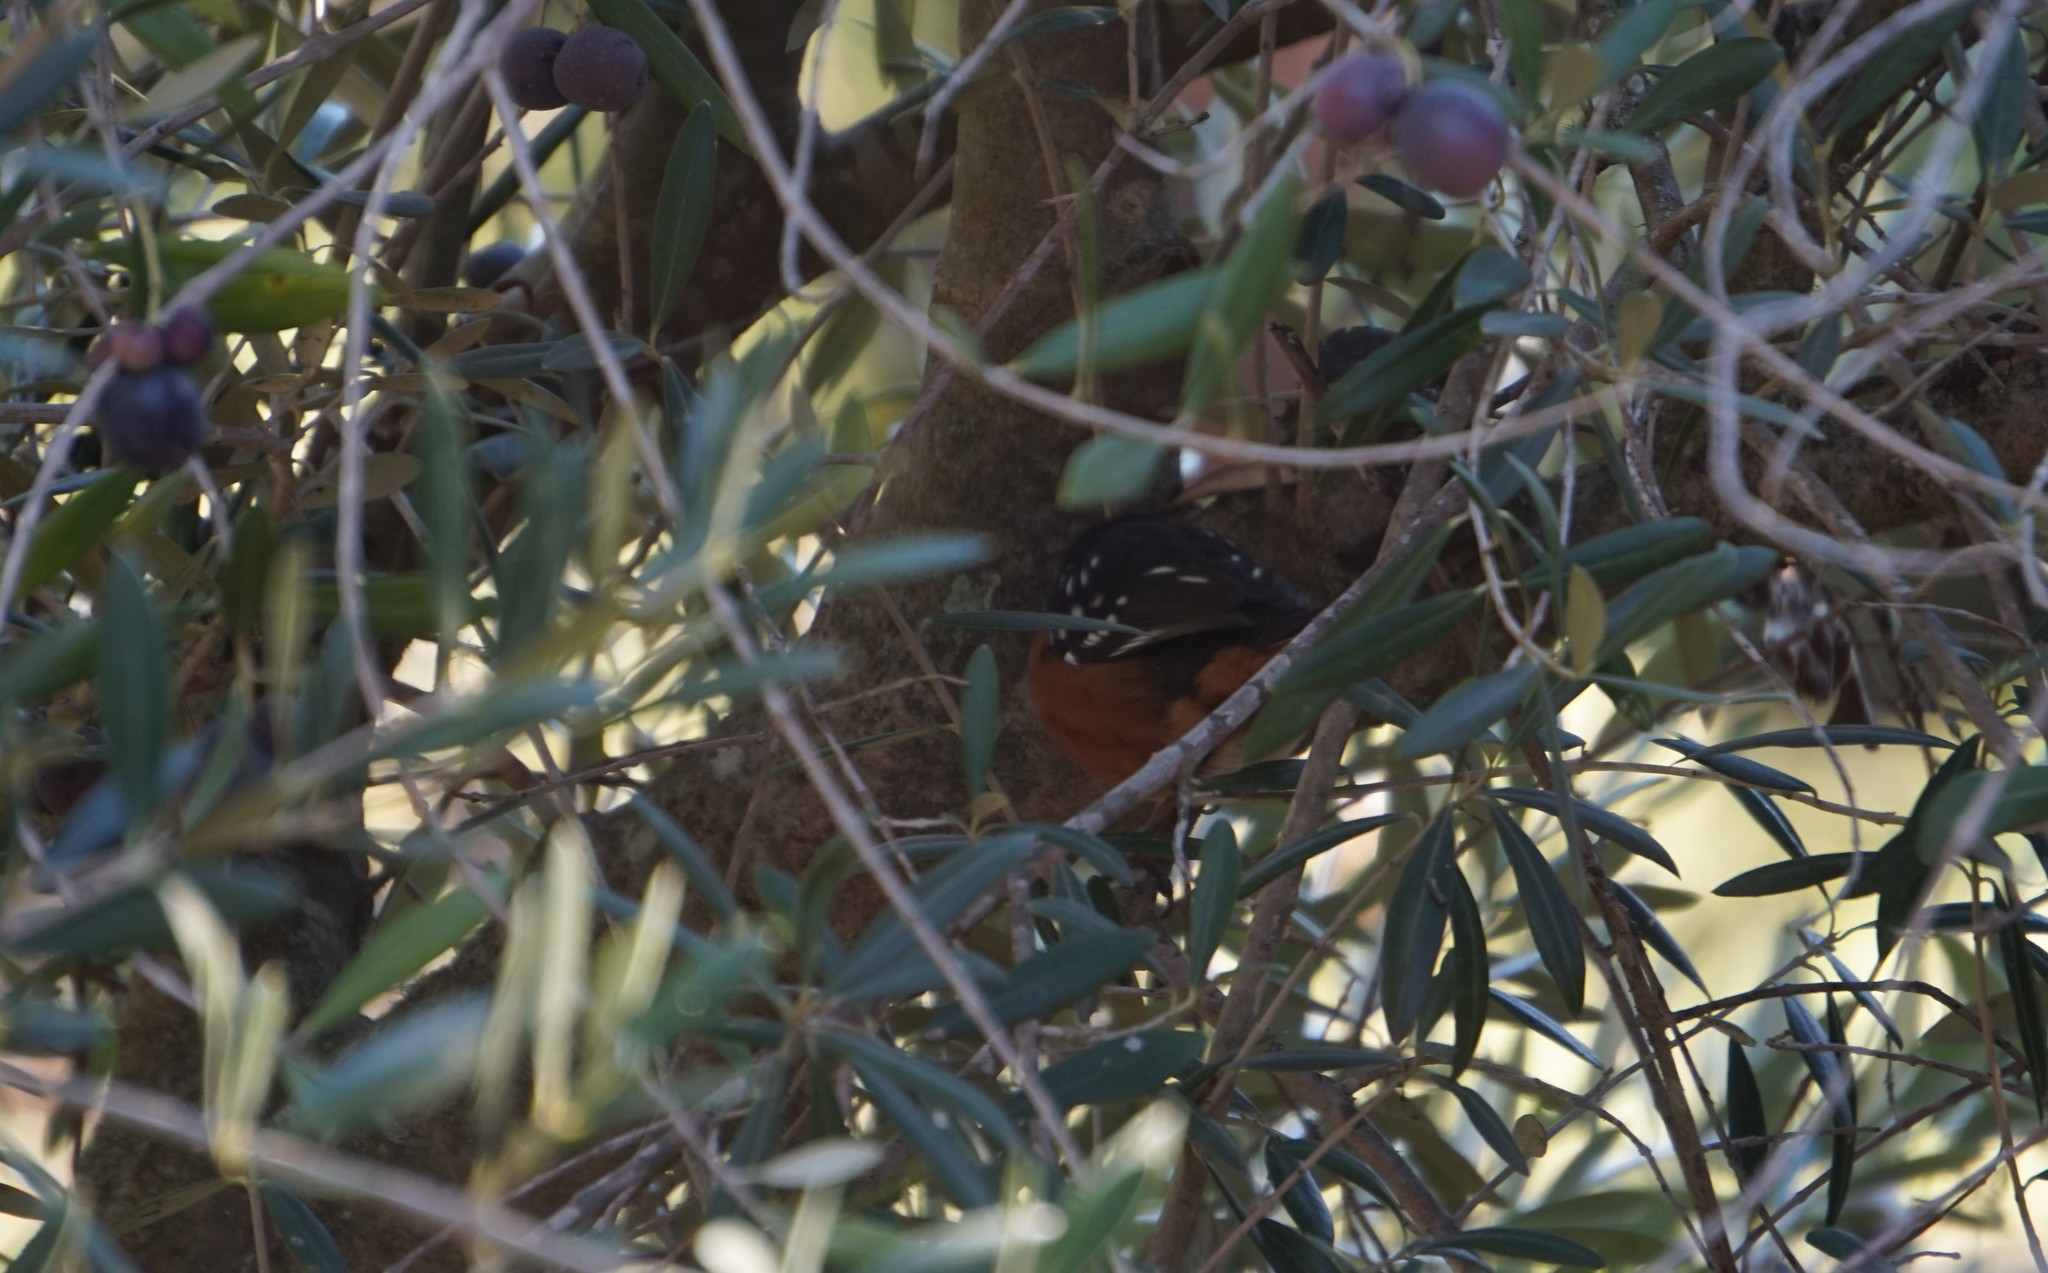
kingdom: Animalia
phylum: Chordata
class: Aves
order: Passeriformes
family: Passerellidae
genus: Pipilo
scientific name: Pipilo maculatus
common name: Spotted towhee
